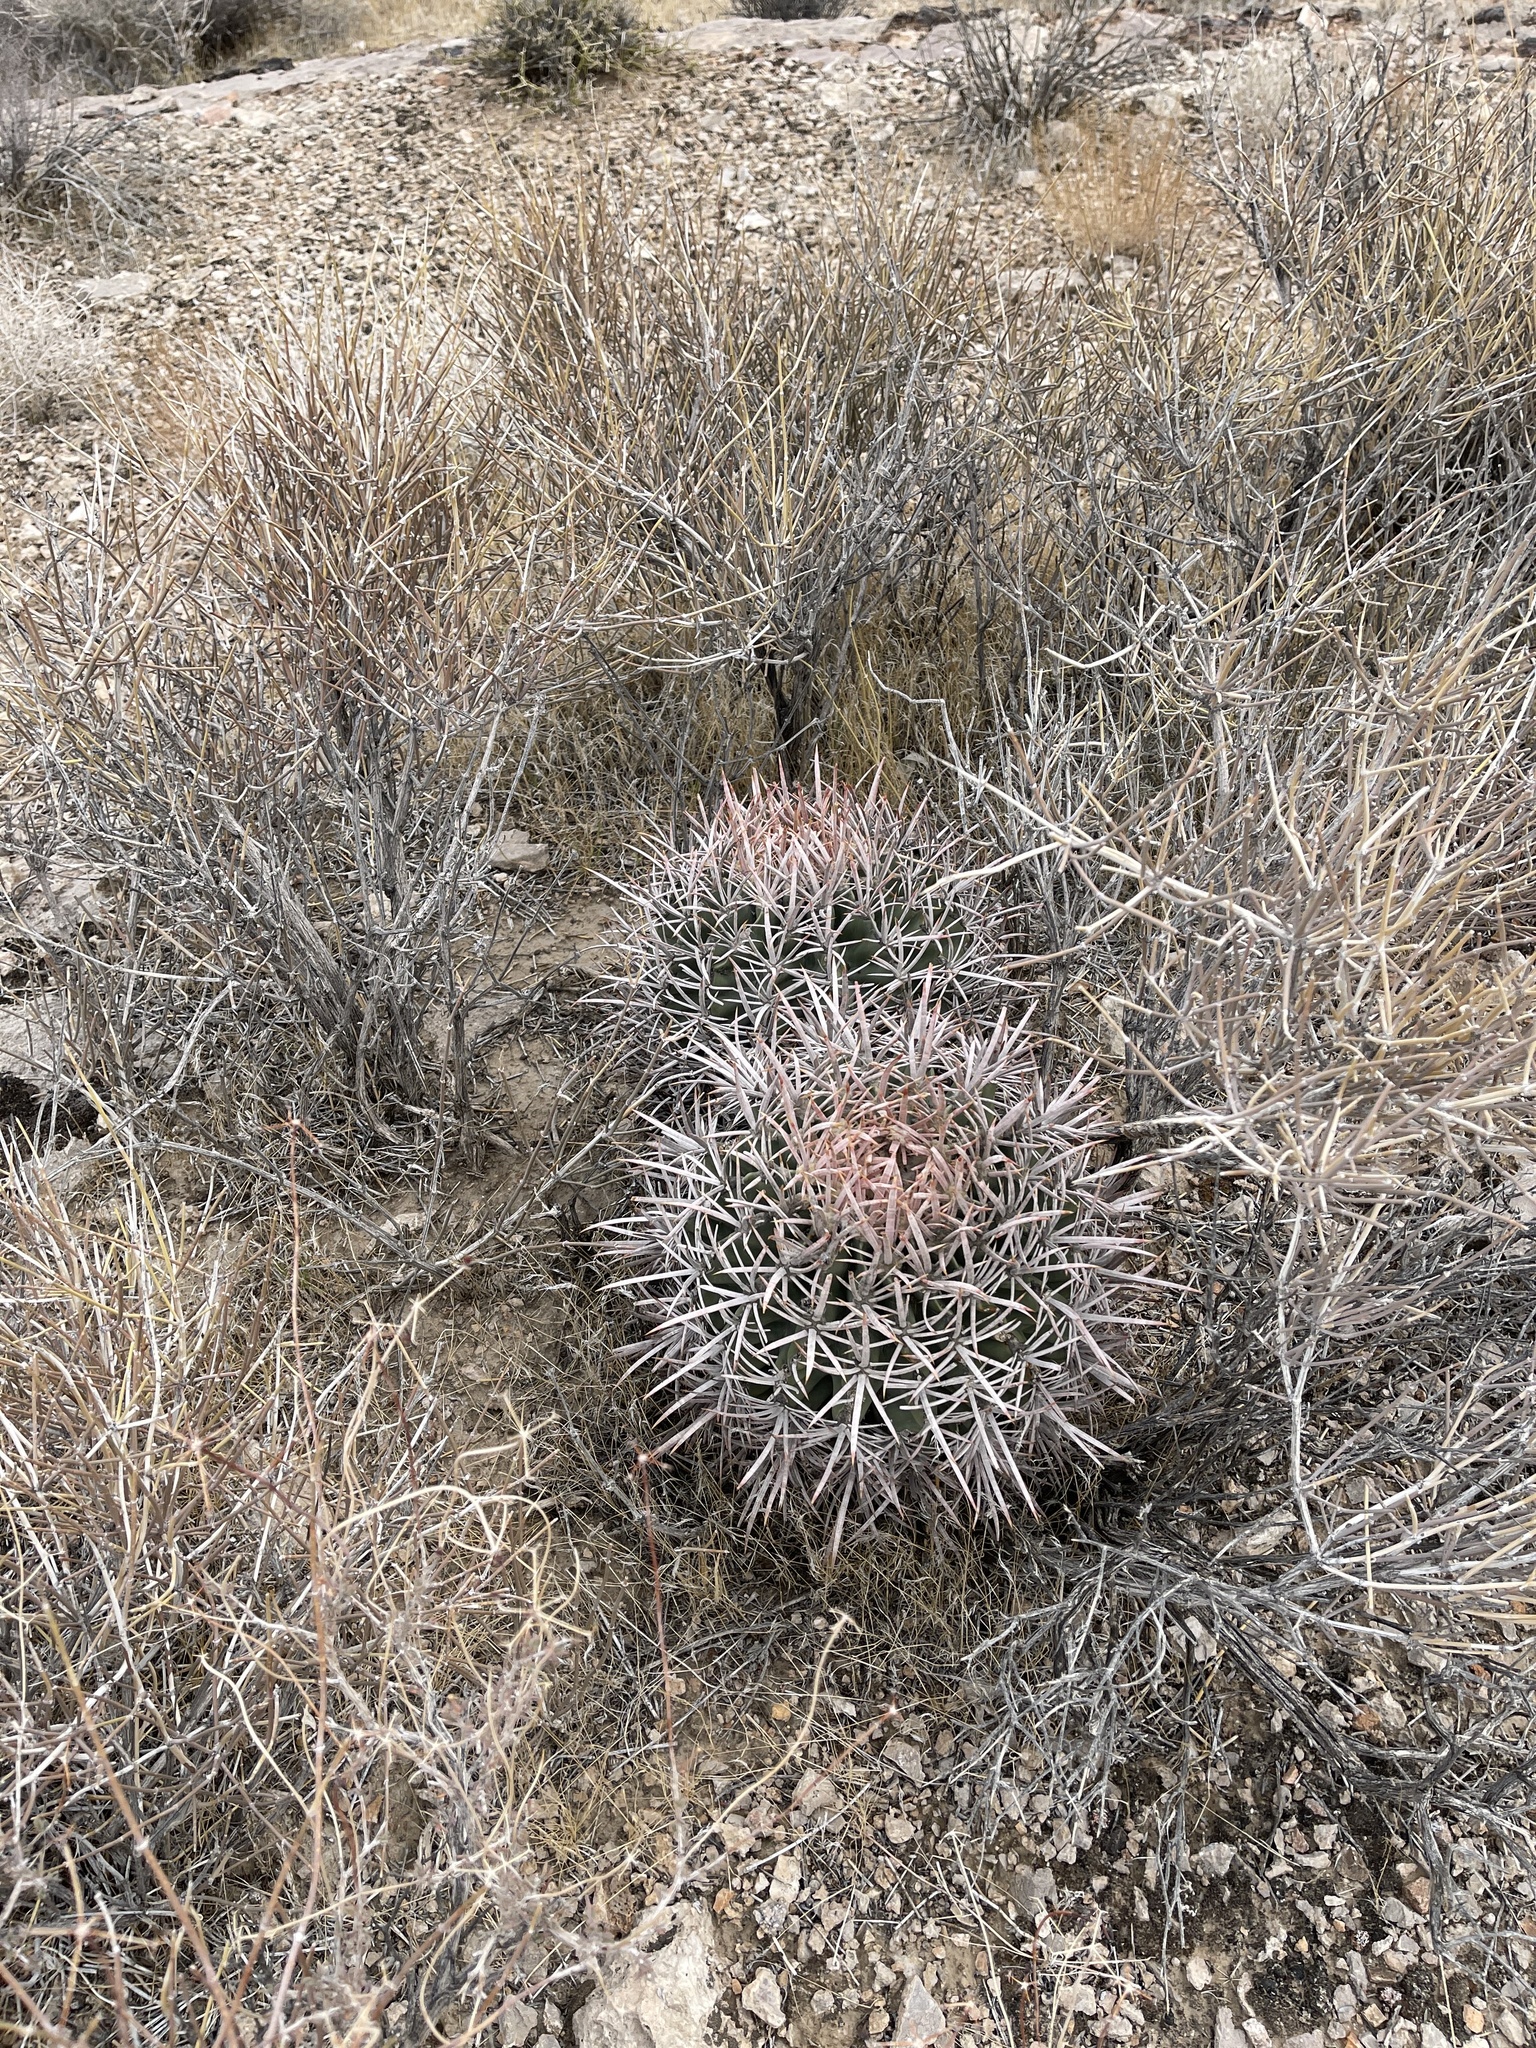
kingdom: Plantae
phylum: Tracheophyta
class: Magnoliopsida
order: Caryophyllales
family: Cactaceae
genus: Echinocactus
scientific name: Echinocactus polycephalus
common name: Cottontop cactus
